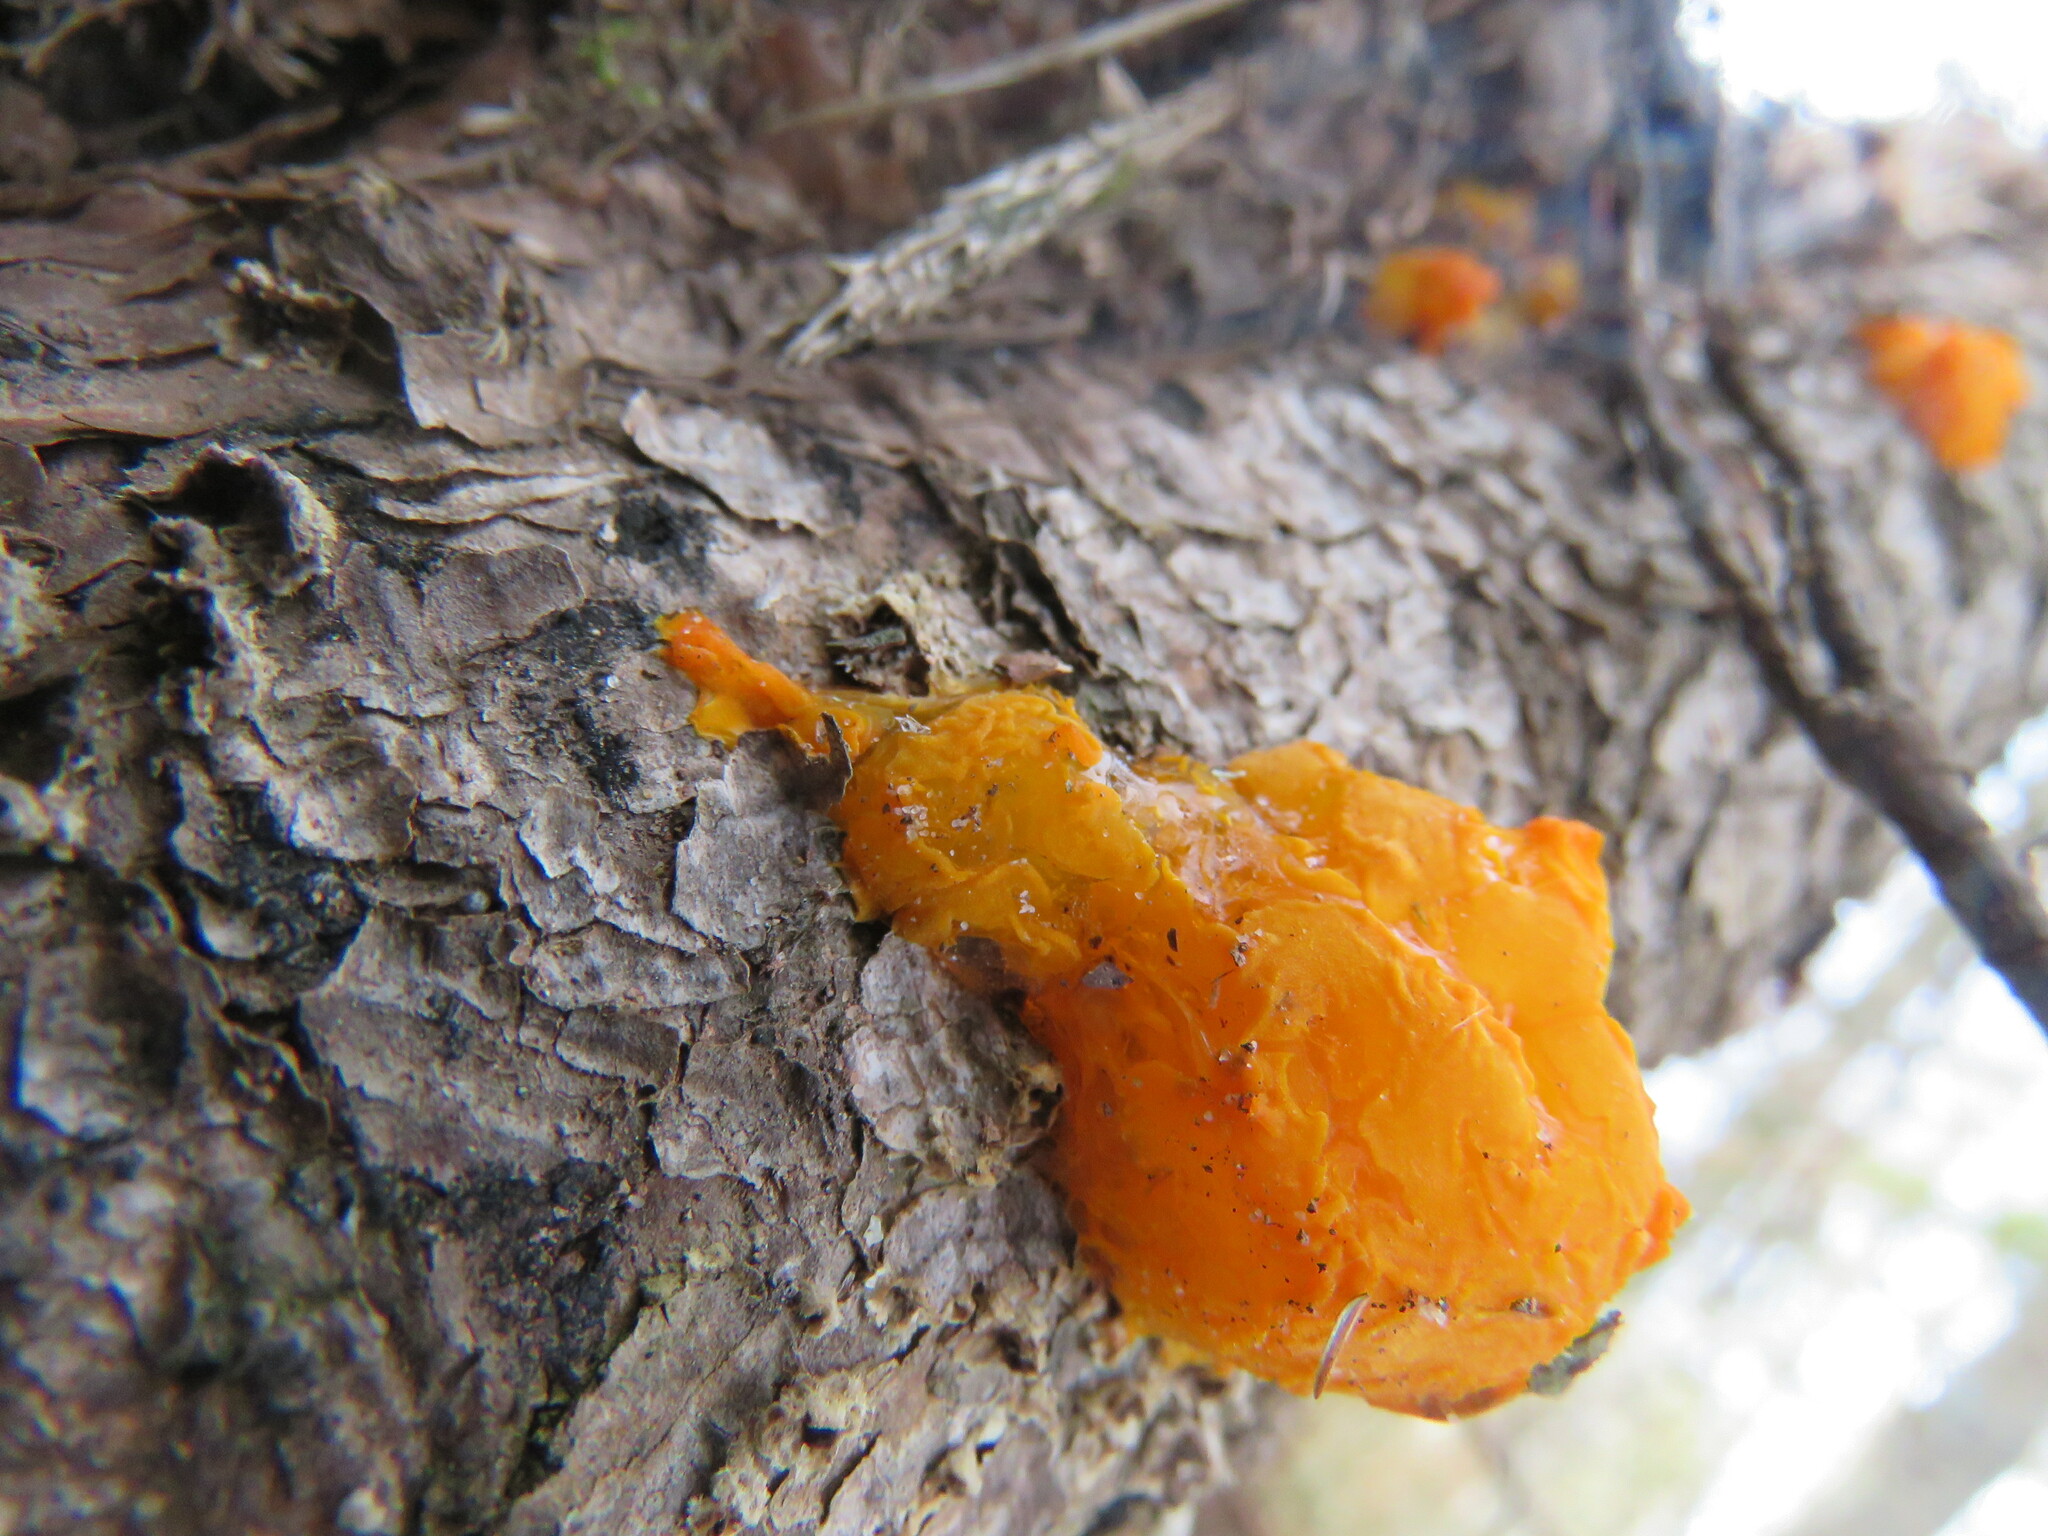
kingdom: Fungi
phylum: Basidiomycota
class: Dacrymycetes
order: Dacrymycetales
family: Dacrymycetaceae
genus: Dacrymyces
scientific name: Dacrymyces chrysospermus
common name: Orange jelly spot
